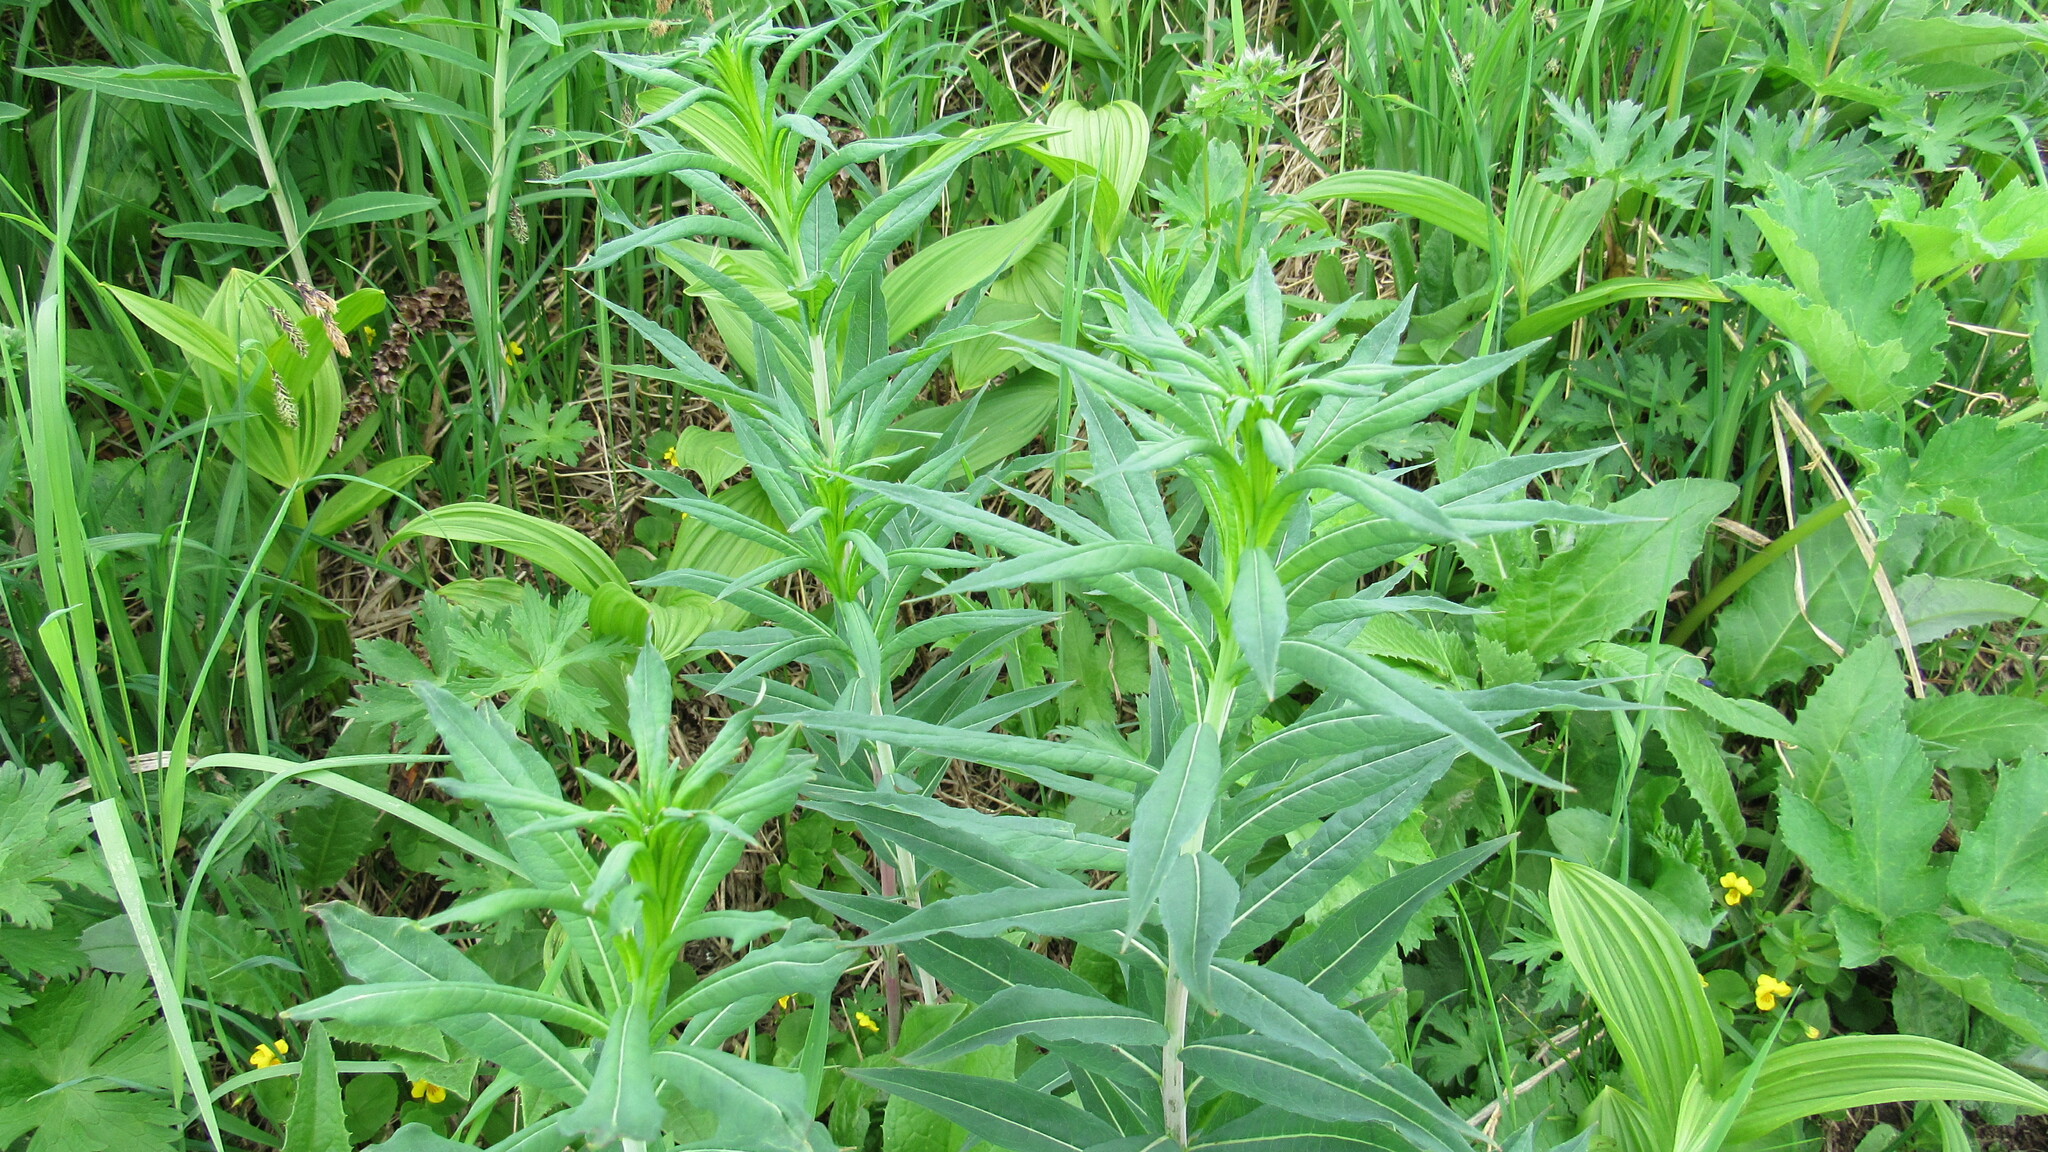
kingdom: Plantae
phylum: Tracheophyta
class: Magnoliopsida
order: Myrtales
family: Onagraceae
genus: Chamaenerion
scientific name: Chamaenerion angustifolium
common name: Fireweed
